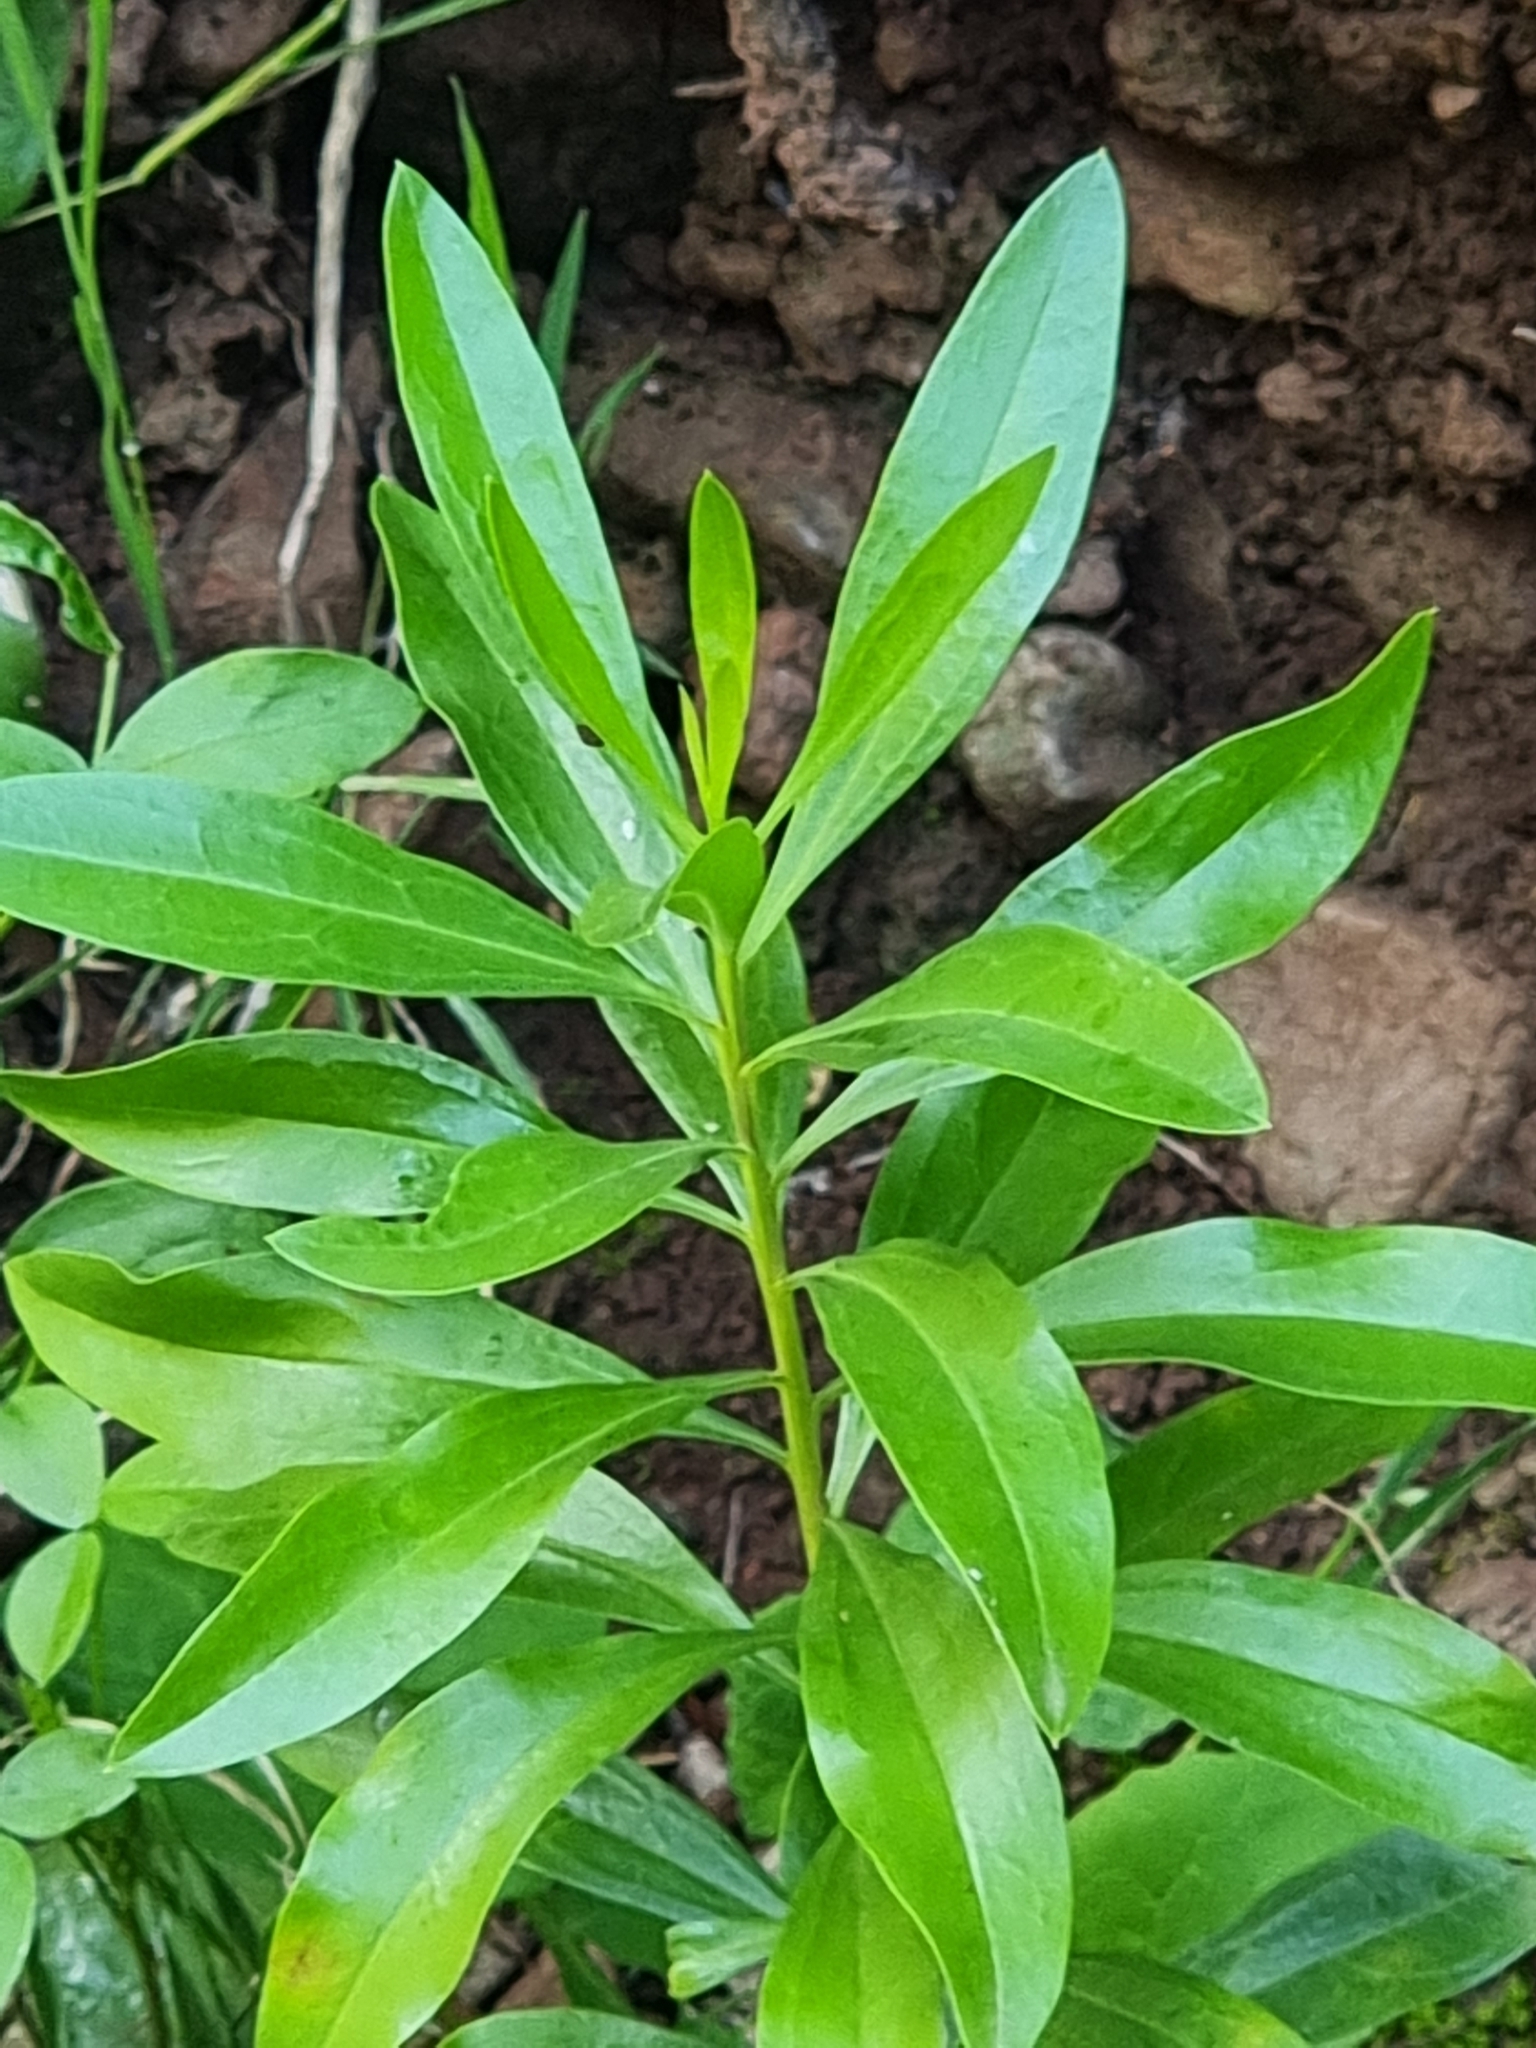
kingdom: Plantae
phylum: Tracheophyta
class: Magnoliopsida
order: Lamiales
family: Plantaginaceae
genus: Globularia
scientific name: Globularia salicina
